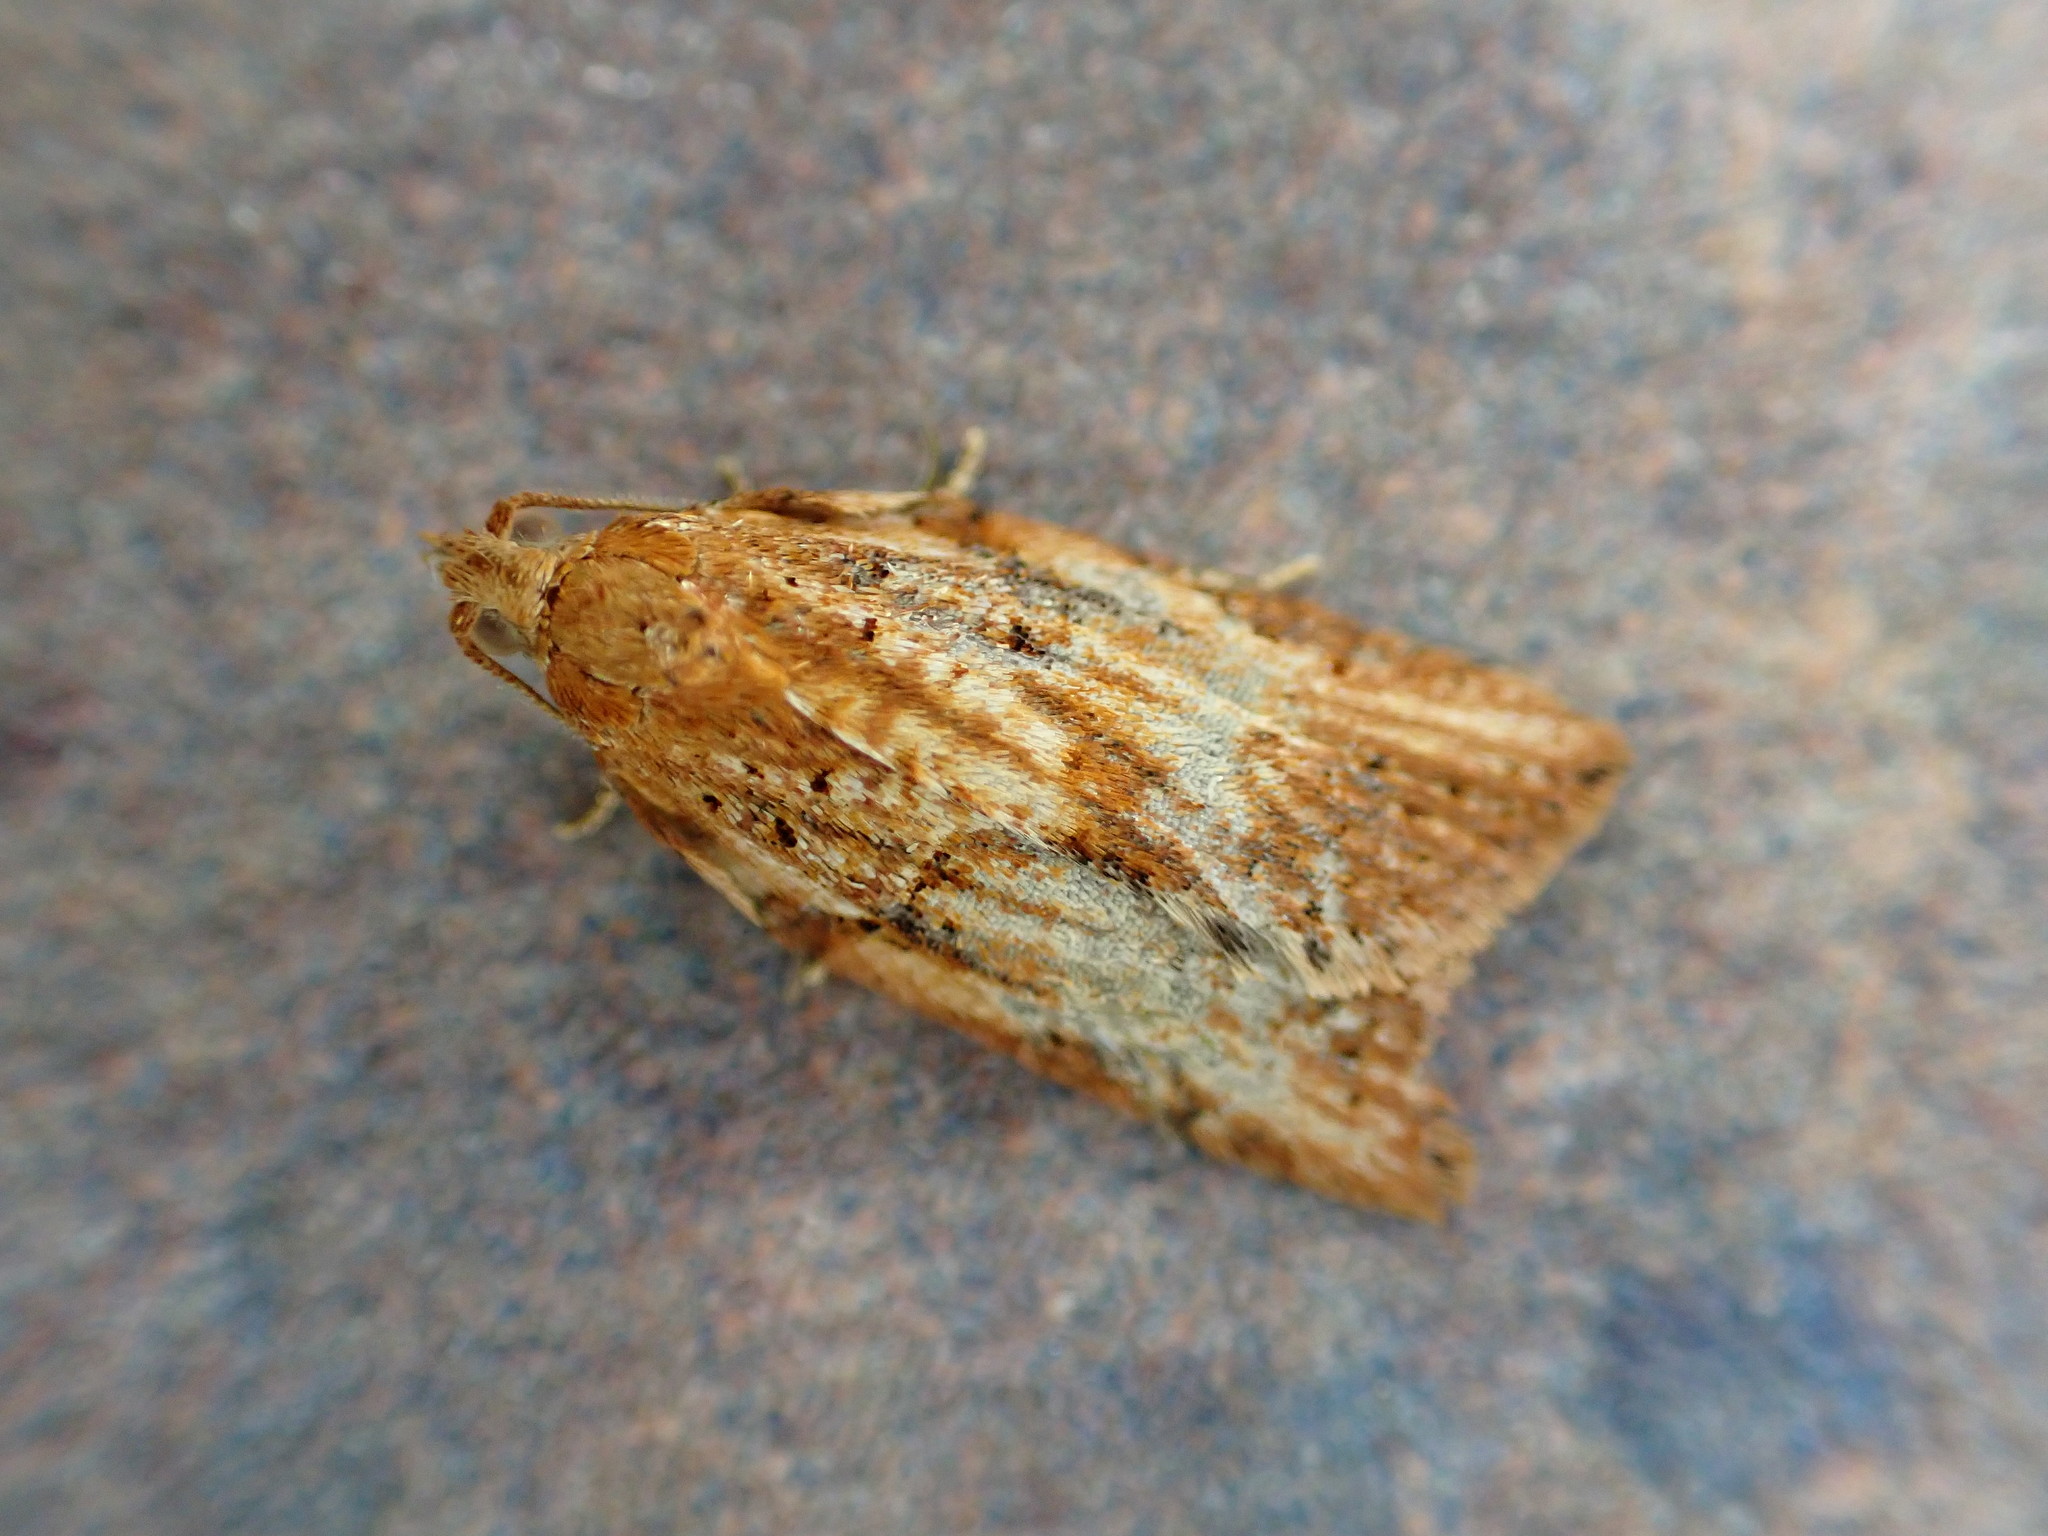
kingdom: Animalia
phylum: Arthropoda
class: Insecta
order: Lepidoptera
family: Tortricidae
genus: Epiphyas
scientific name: Epiphyas postvittana
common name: Light brown apple moth
